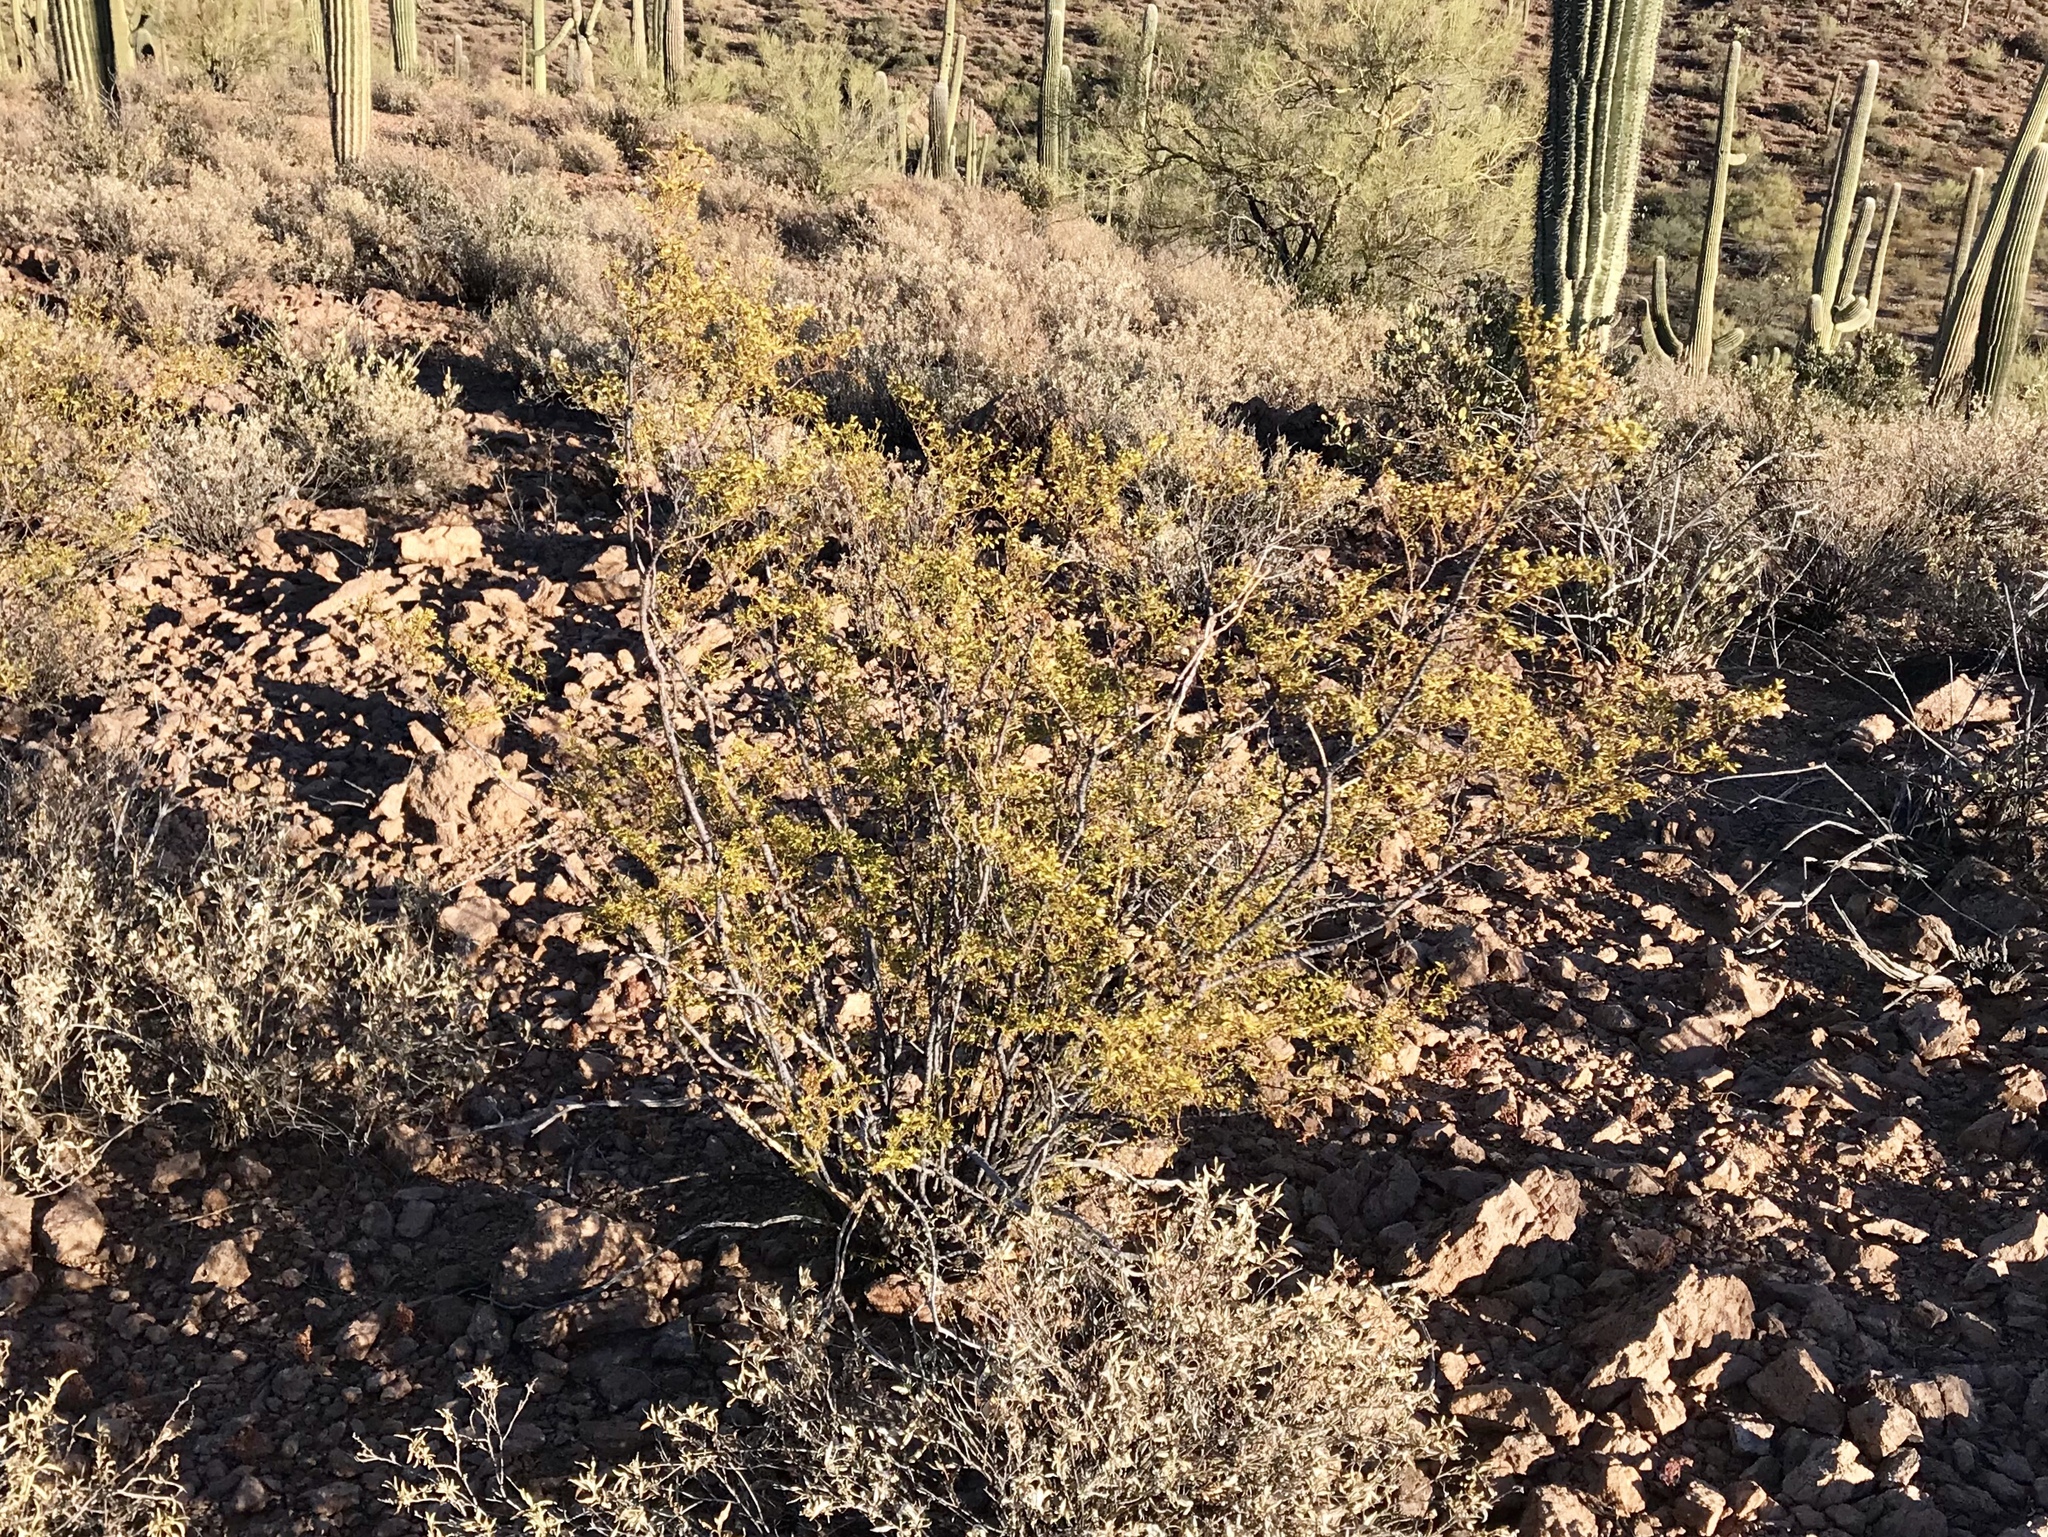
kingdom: Plantae
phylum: Tracheophyta
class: Magnoliopsida
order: Zygophyllales
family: Zygophyllaceae
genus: Larrea
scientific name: Larrea tridentata
